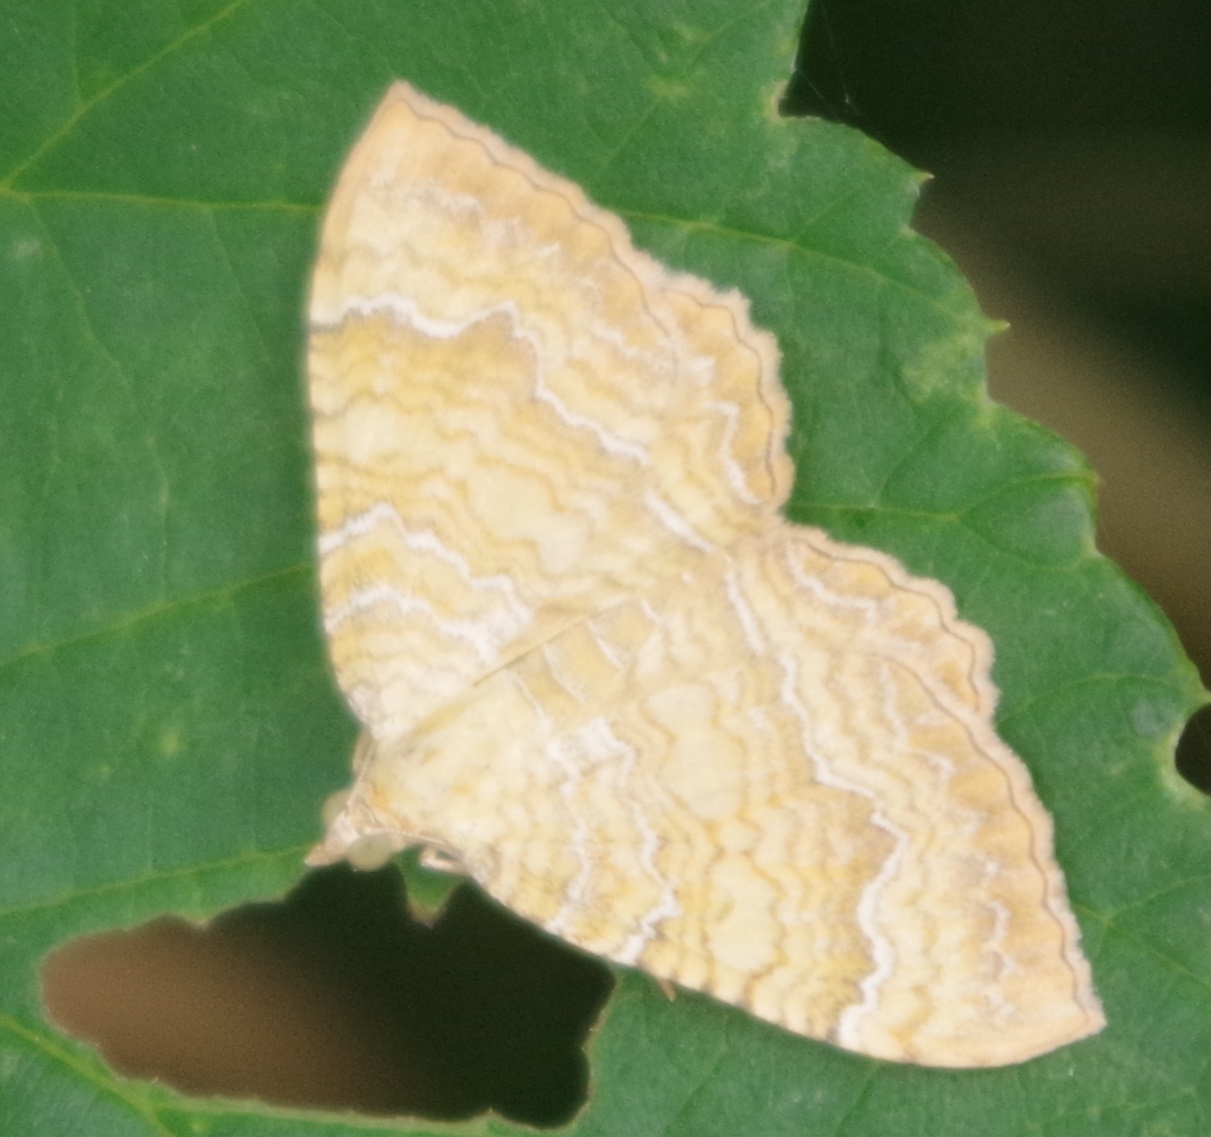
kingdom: Animalia
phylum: Arthropoda
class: Insecta
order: Lepidoptera
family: Geometridae
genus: Camptogramma
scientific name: Camptogramma bilineata
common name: Yellow shell
